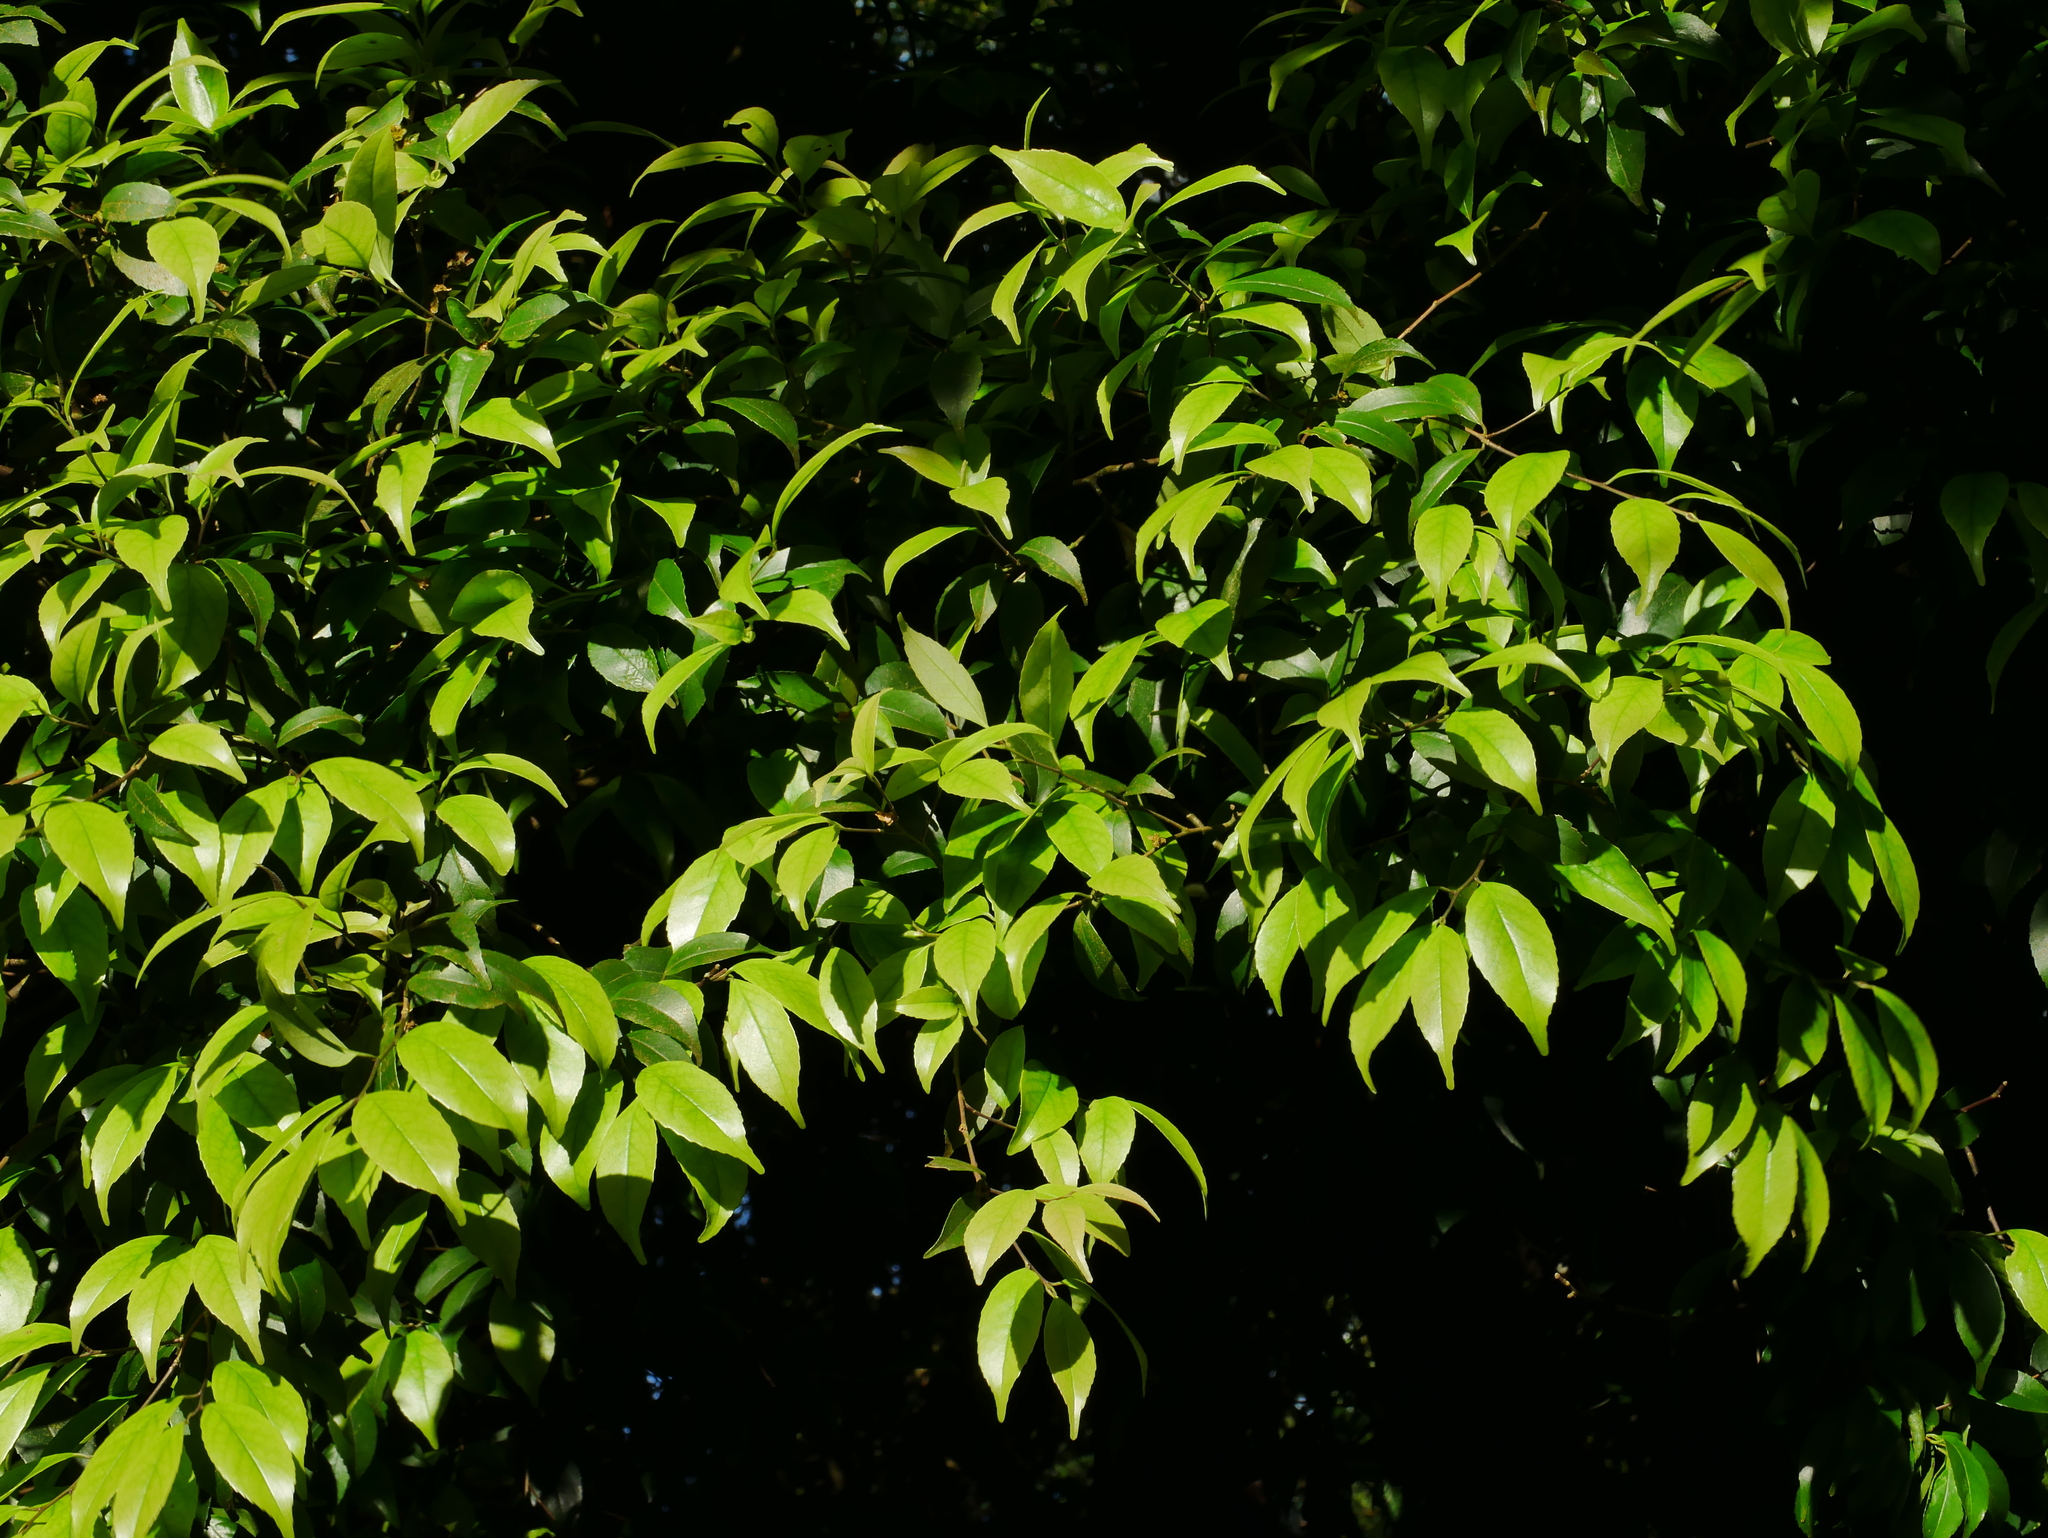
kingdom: Plantae
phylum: Tracheophyta
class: Magnoliopsida
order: Ericales
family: Symplocaceae
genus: Symplocos
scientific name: Symplocos sumuntia
